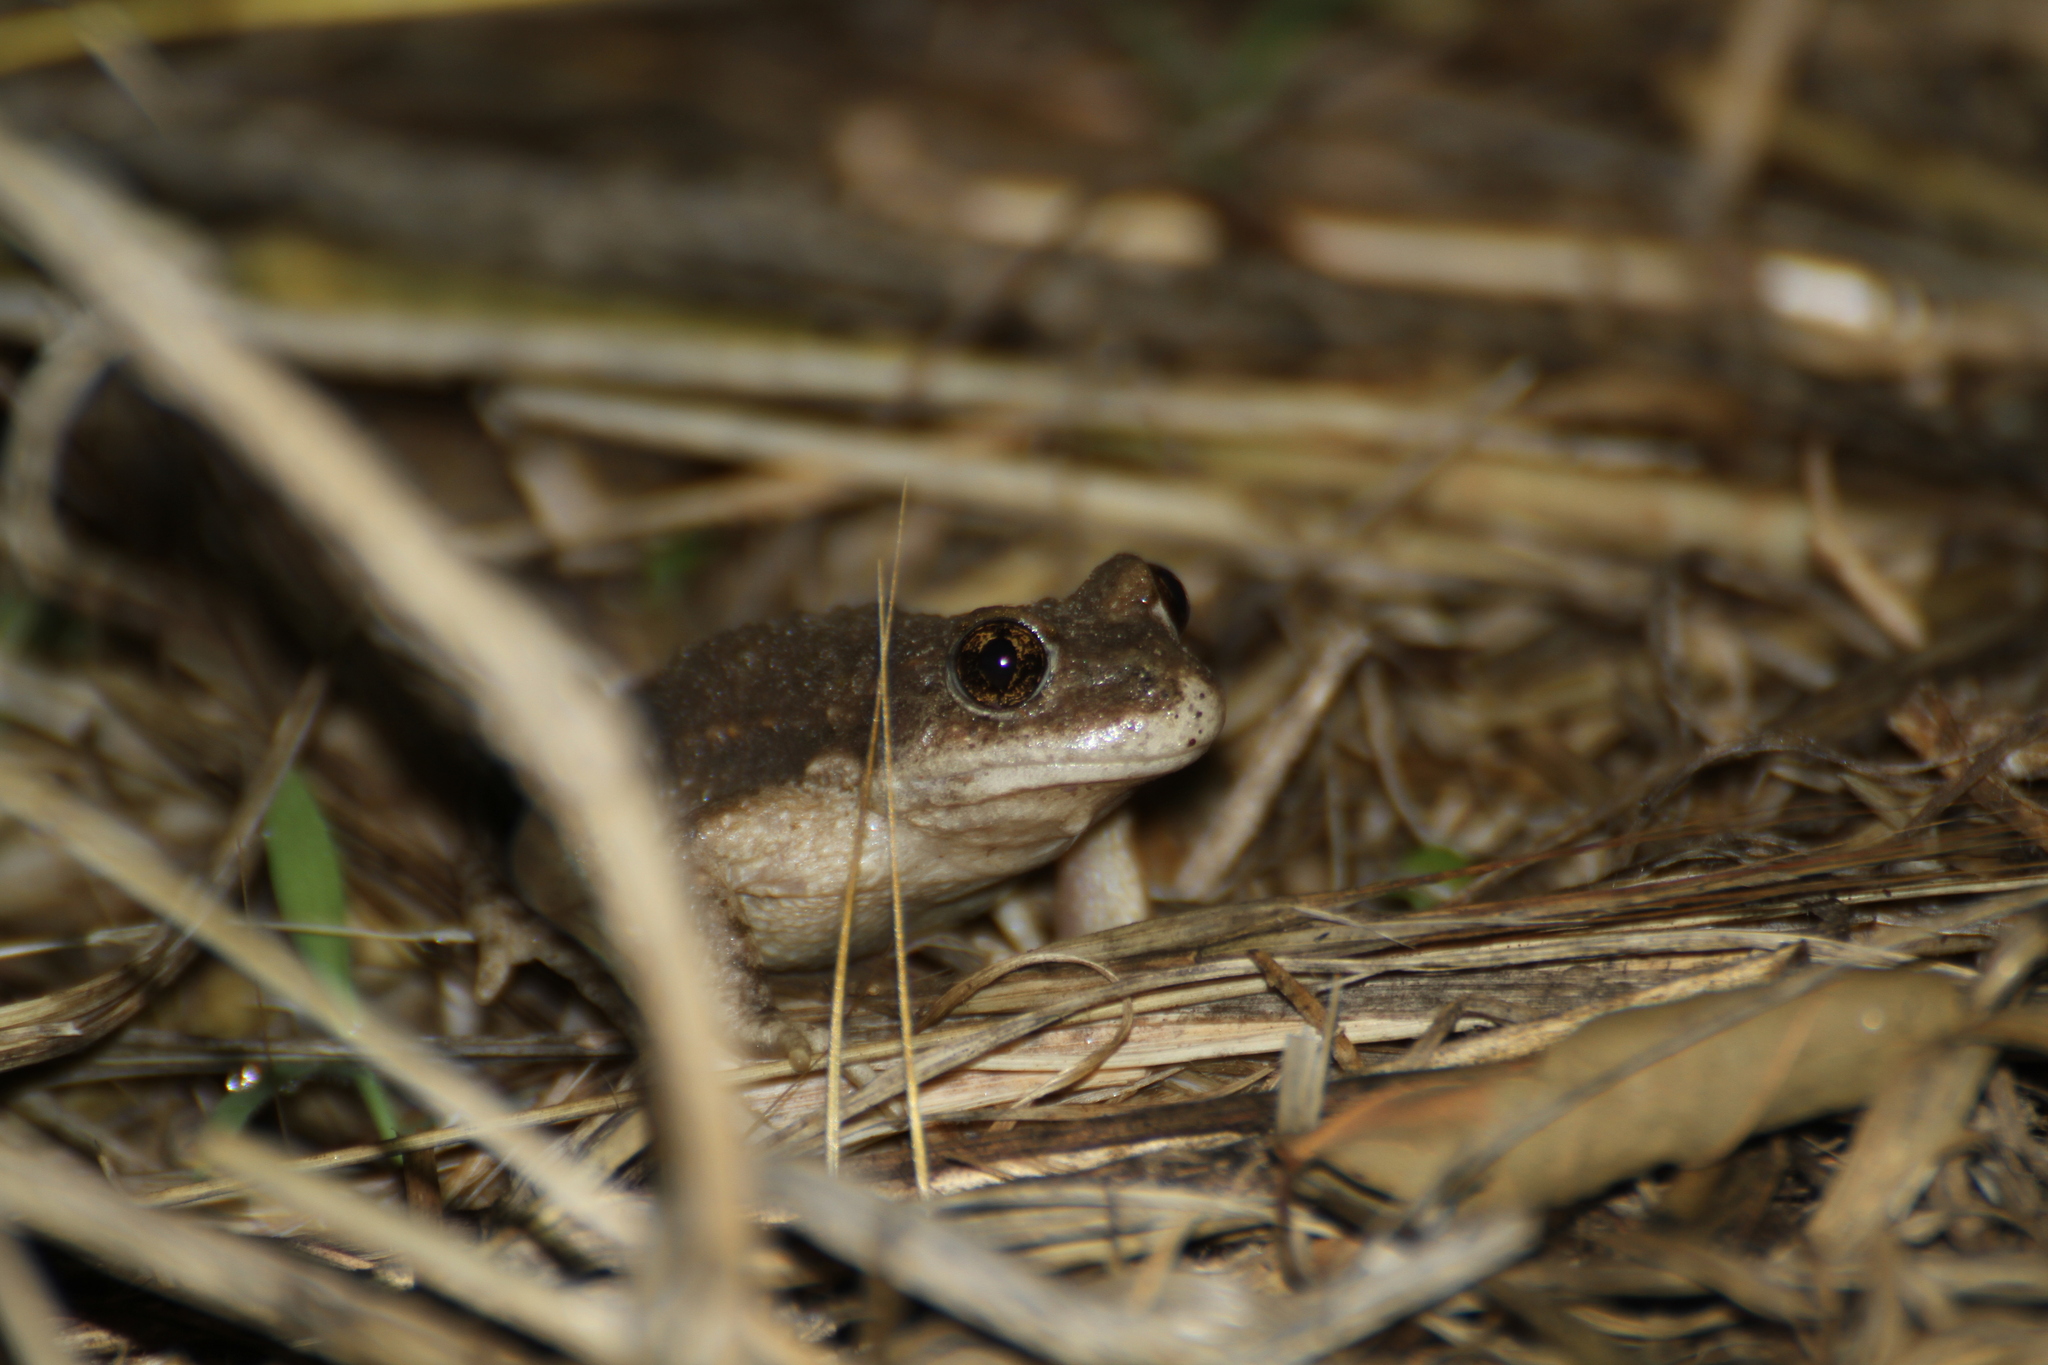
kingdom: Animalia
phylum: Chordata
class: Amphibia
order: Anura
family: Alytidae
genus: Alytes
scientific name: Alytes obstetricans
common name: Midwife toad
